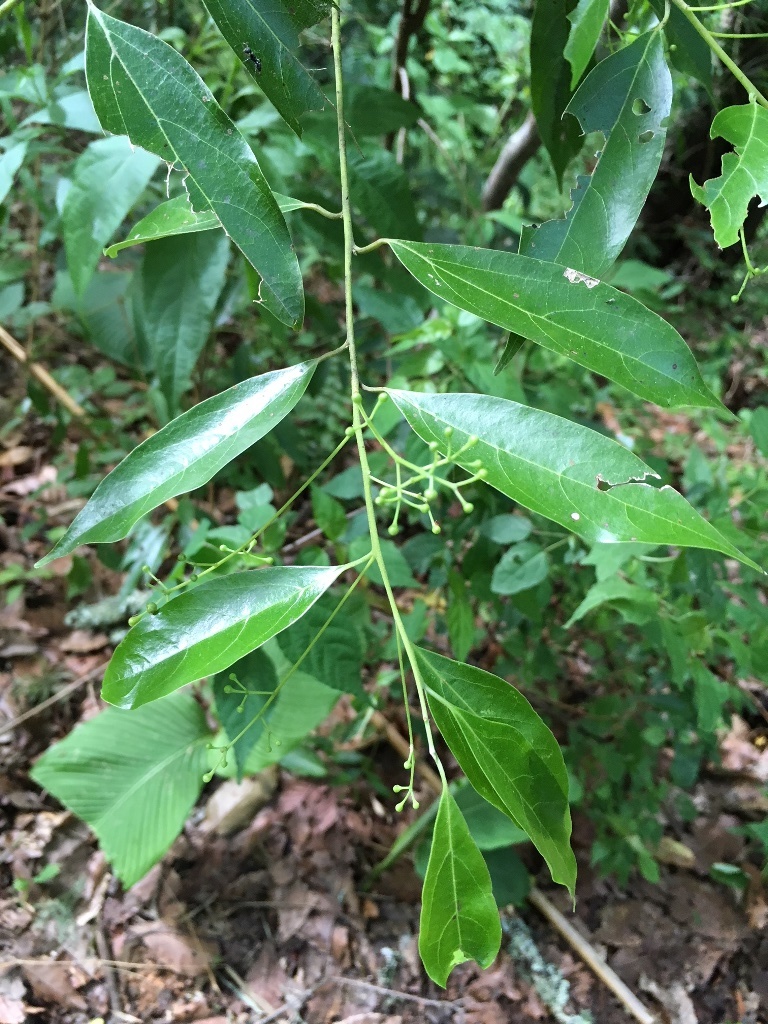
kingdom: Plantae
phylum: Tracheophyta
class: Magnoliopsida
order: Laurales
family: Lauraceae
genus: Ocotea
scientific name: Ocotea effusa
